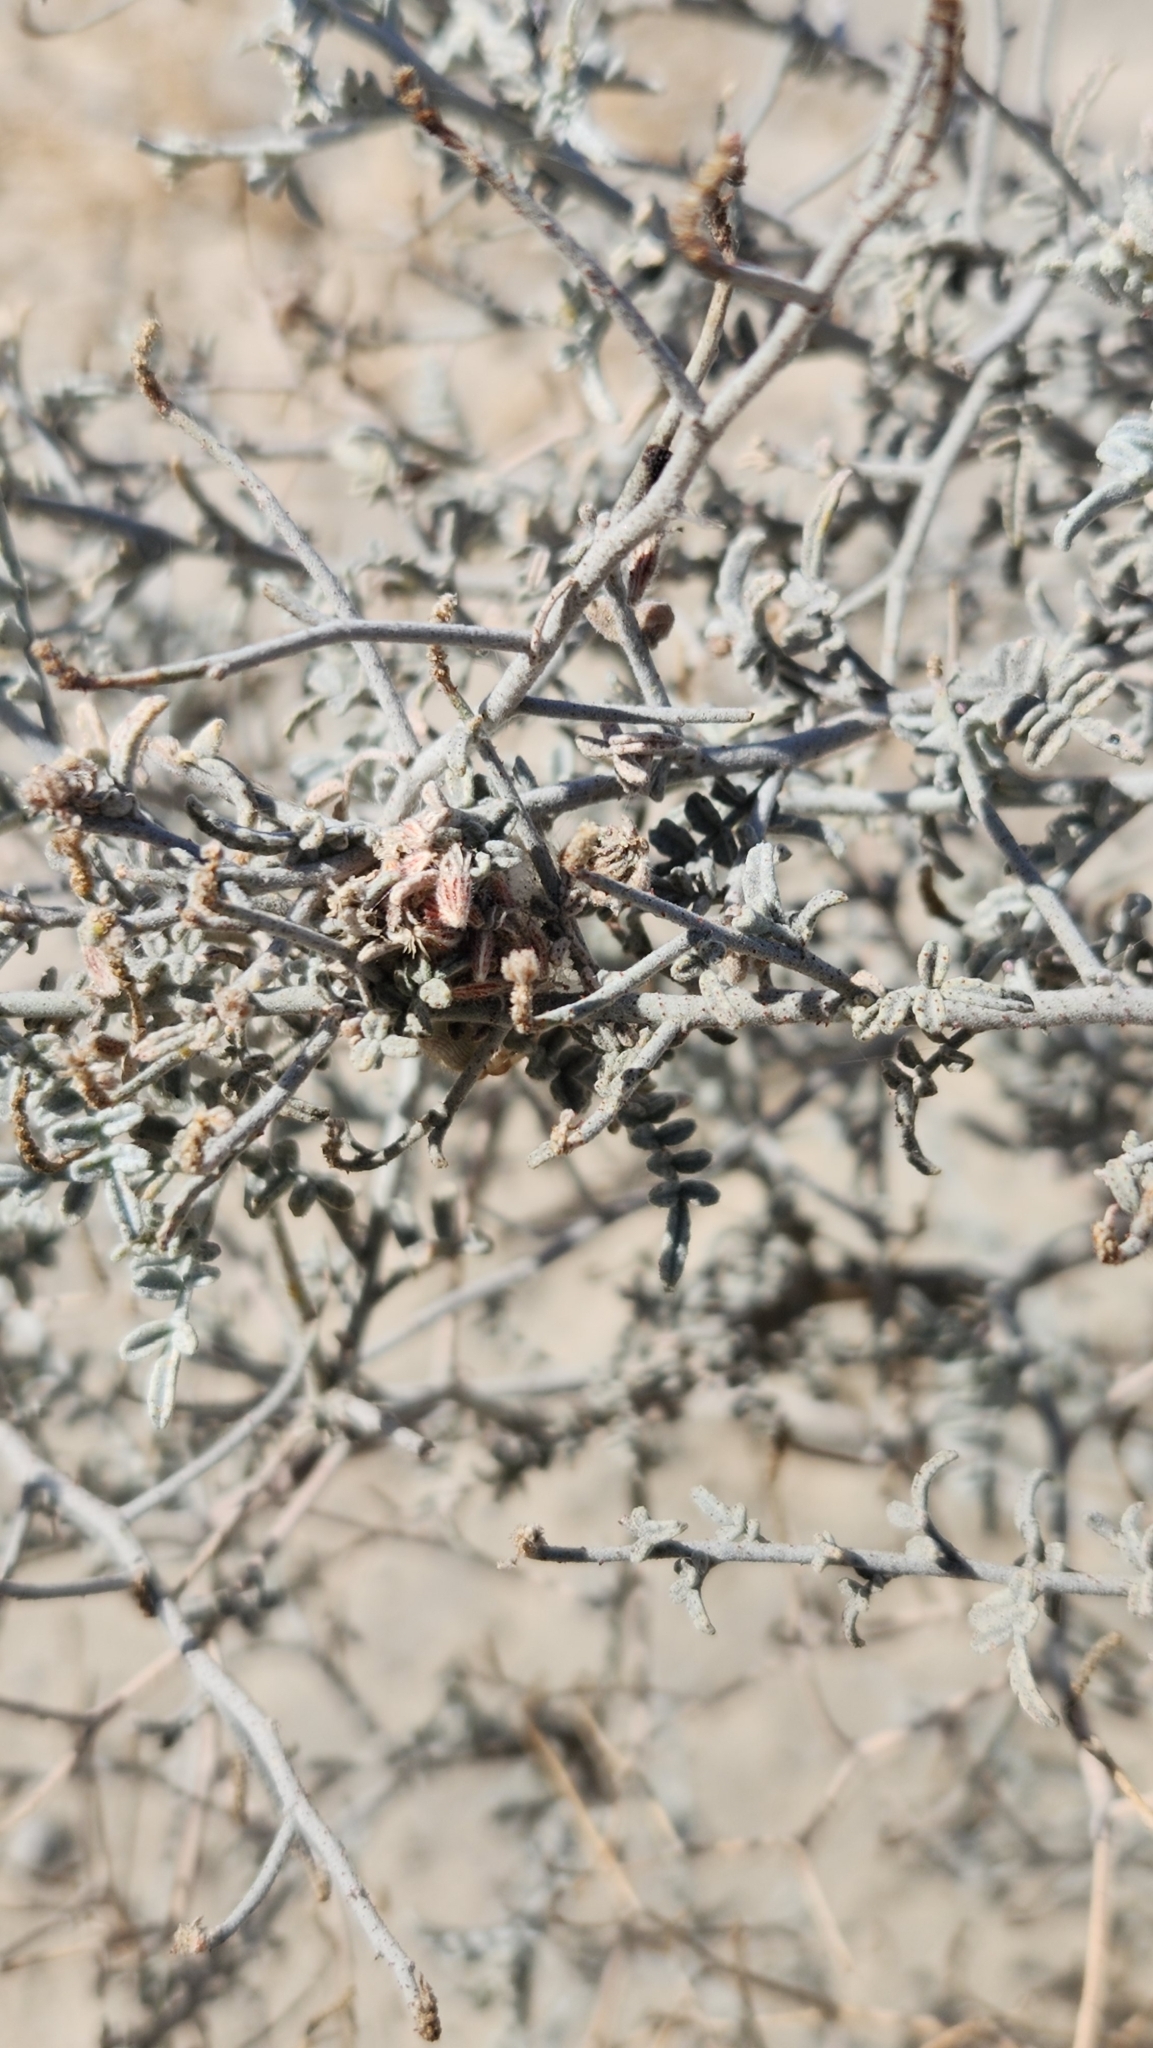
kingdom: Plantae
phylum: Tracheophyta
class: Magnoliopsida
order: Fabales
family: Fabaceae
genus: Psorothamnus
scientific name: Psorothamnus emoryi
